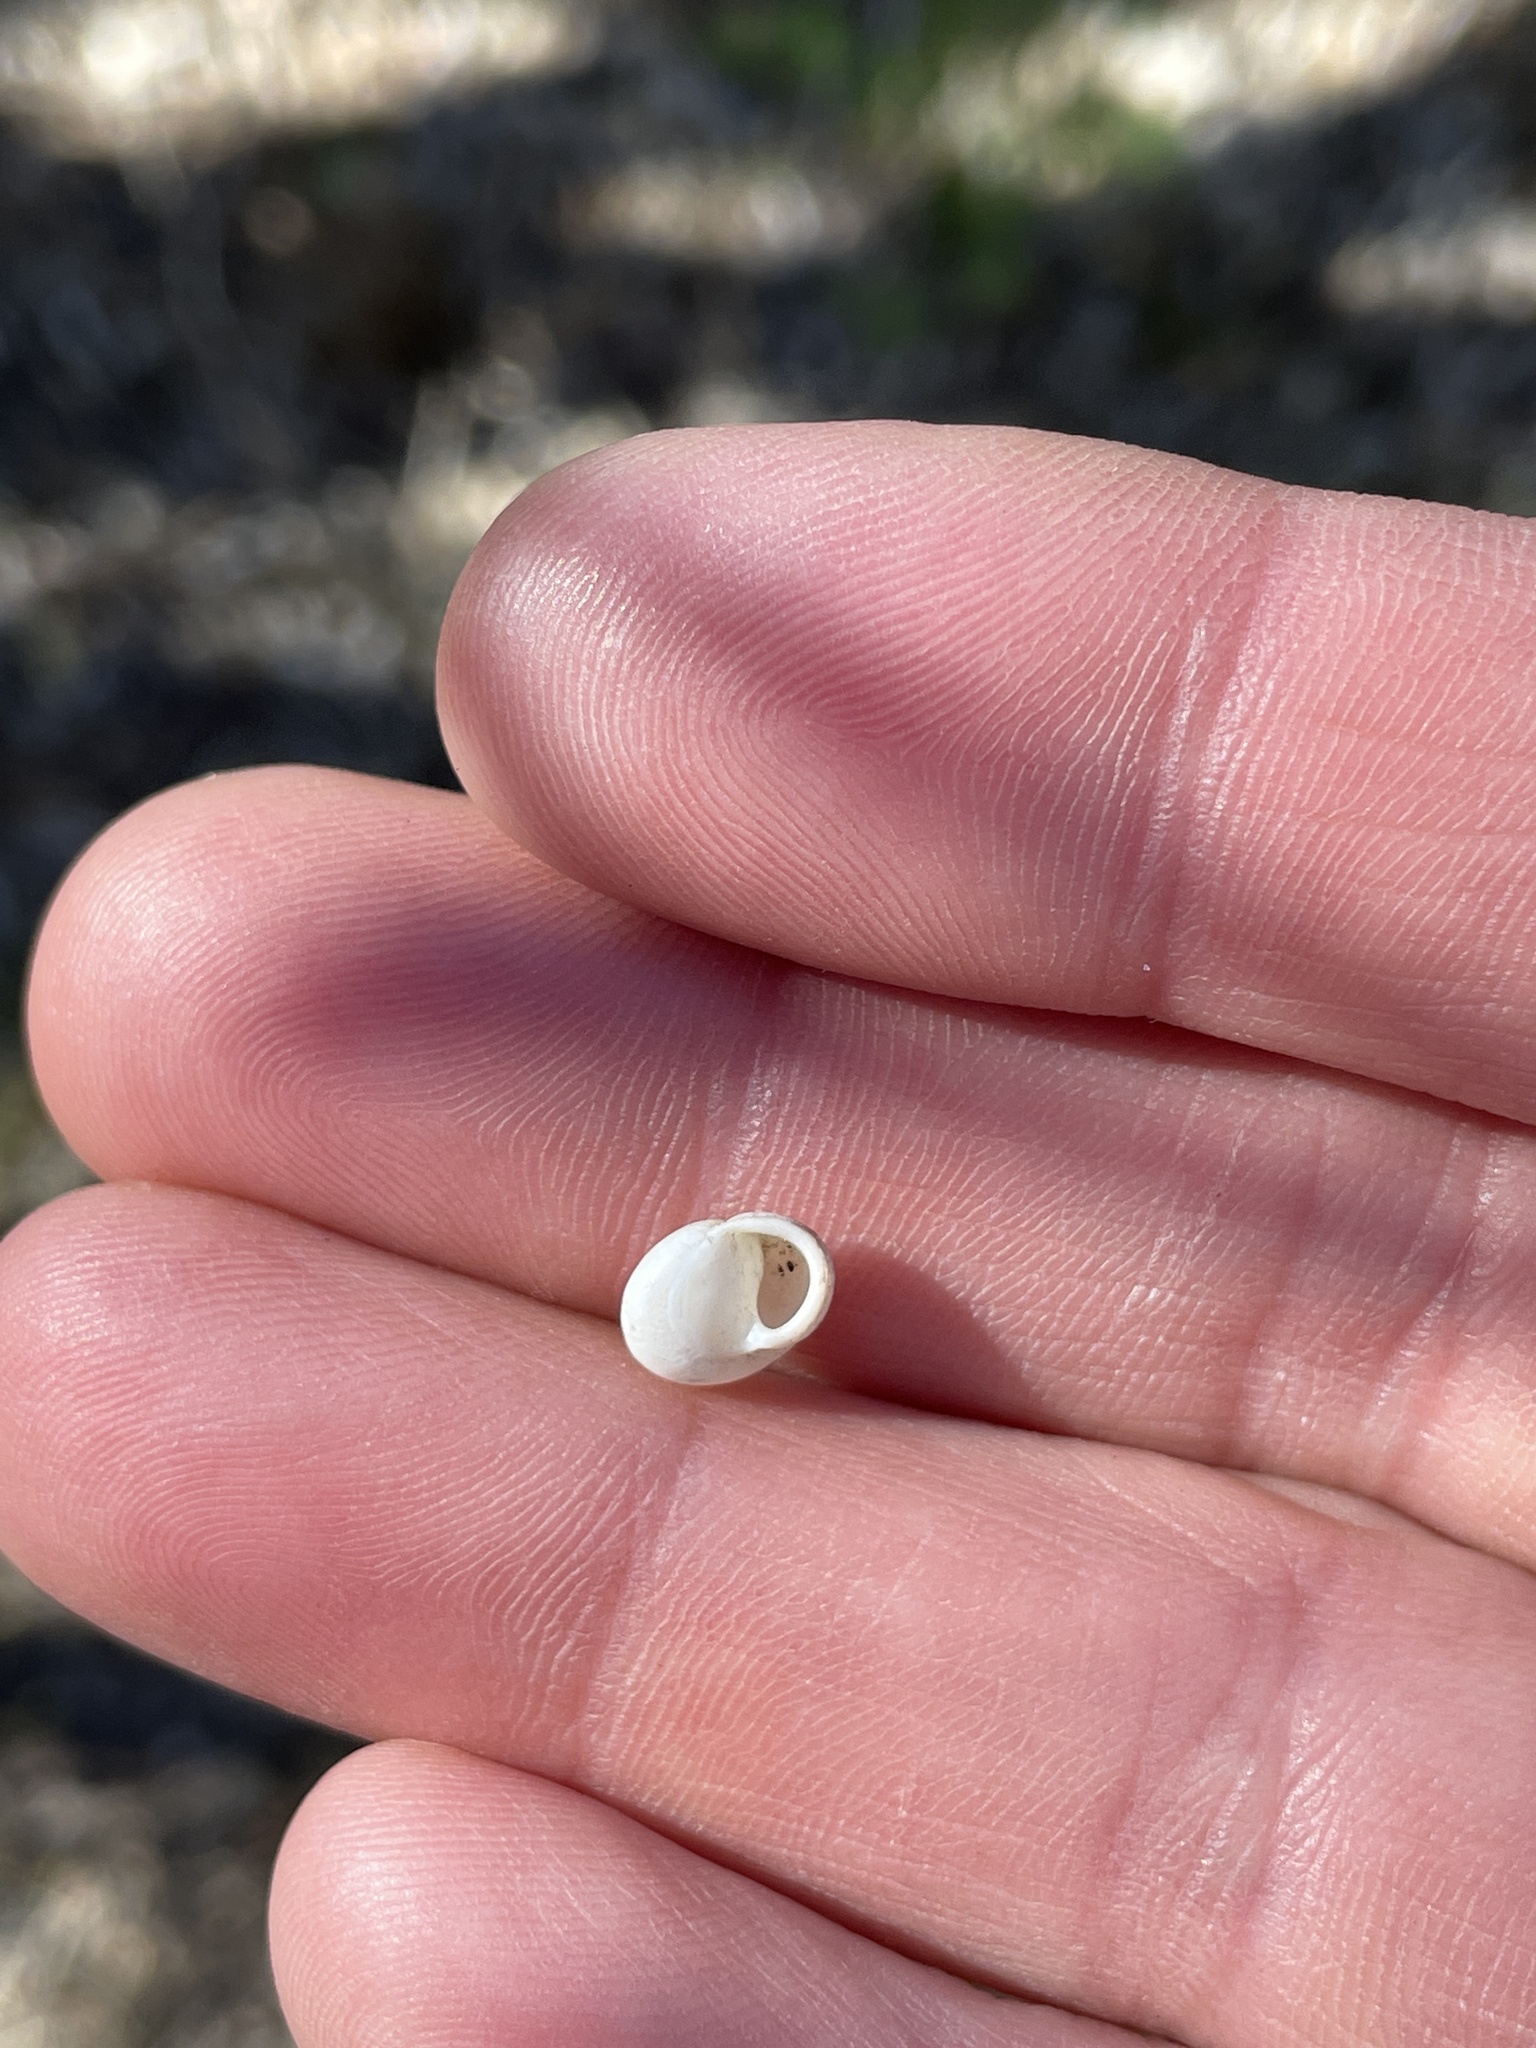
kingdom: Animalia
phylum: Mollusca
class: Gastropoda
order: Cycloneritida
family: Helicinidae
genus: Helicina
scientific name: Helicina orbiculata
